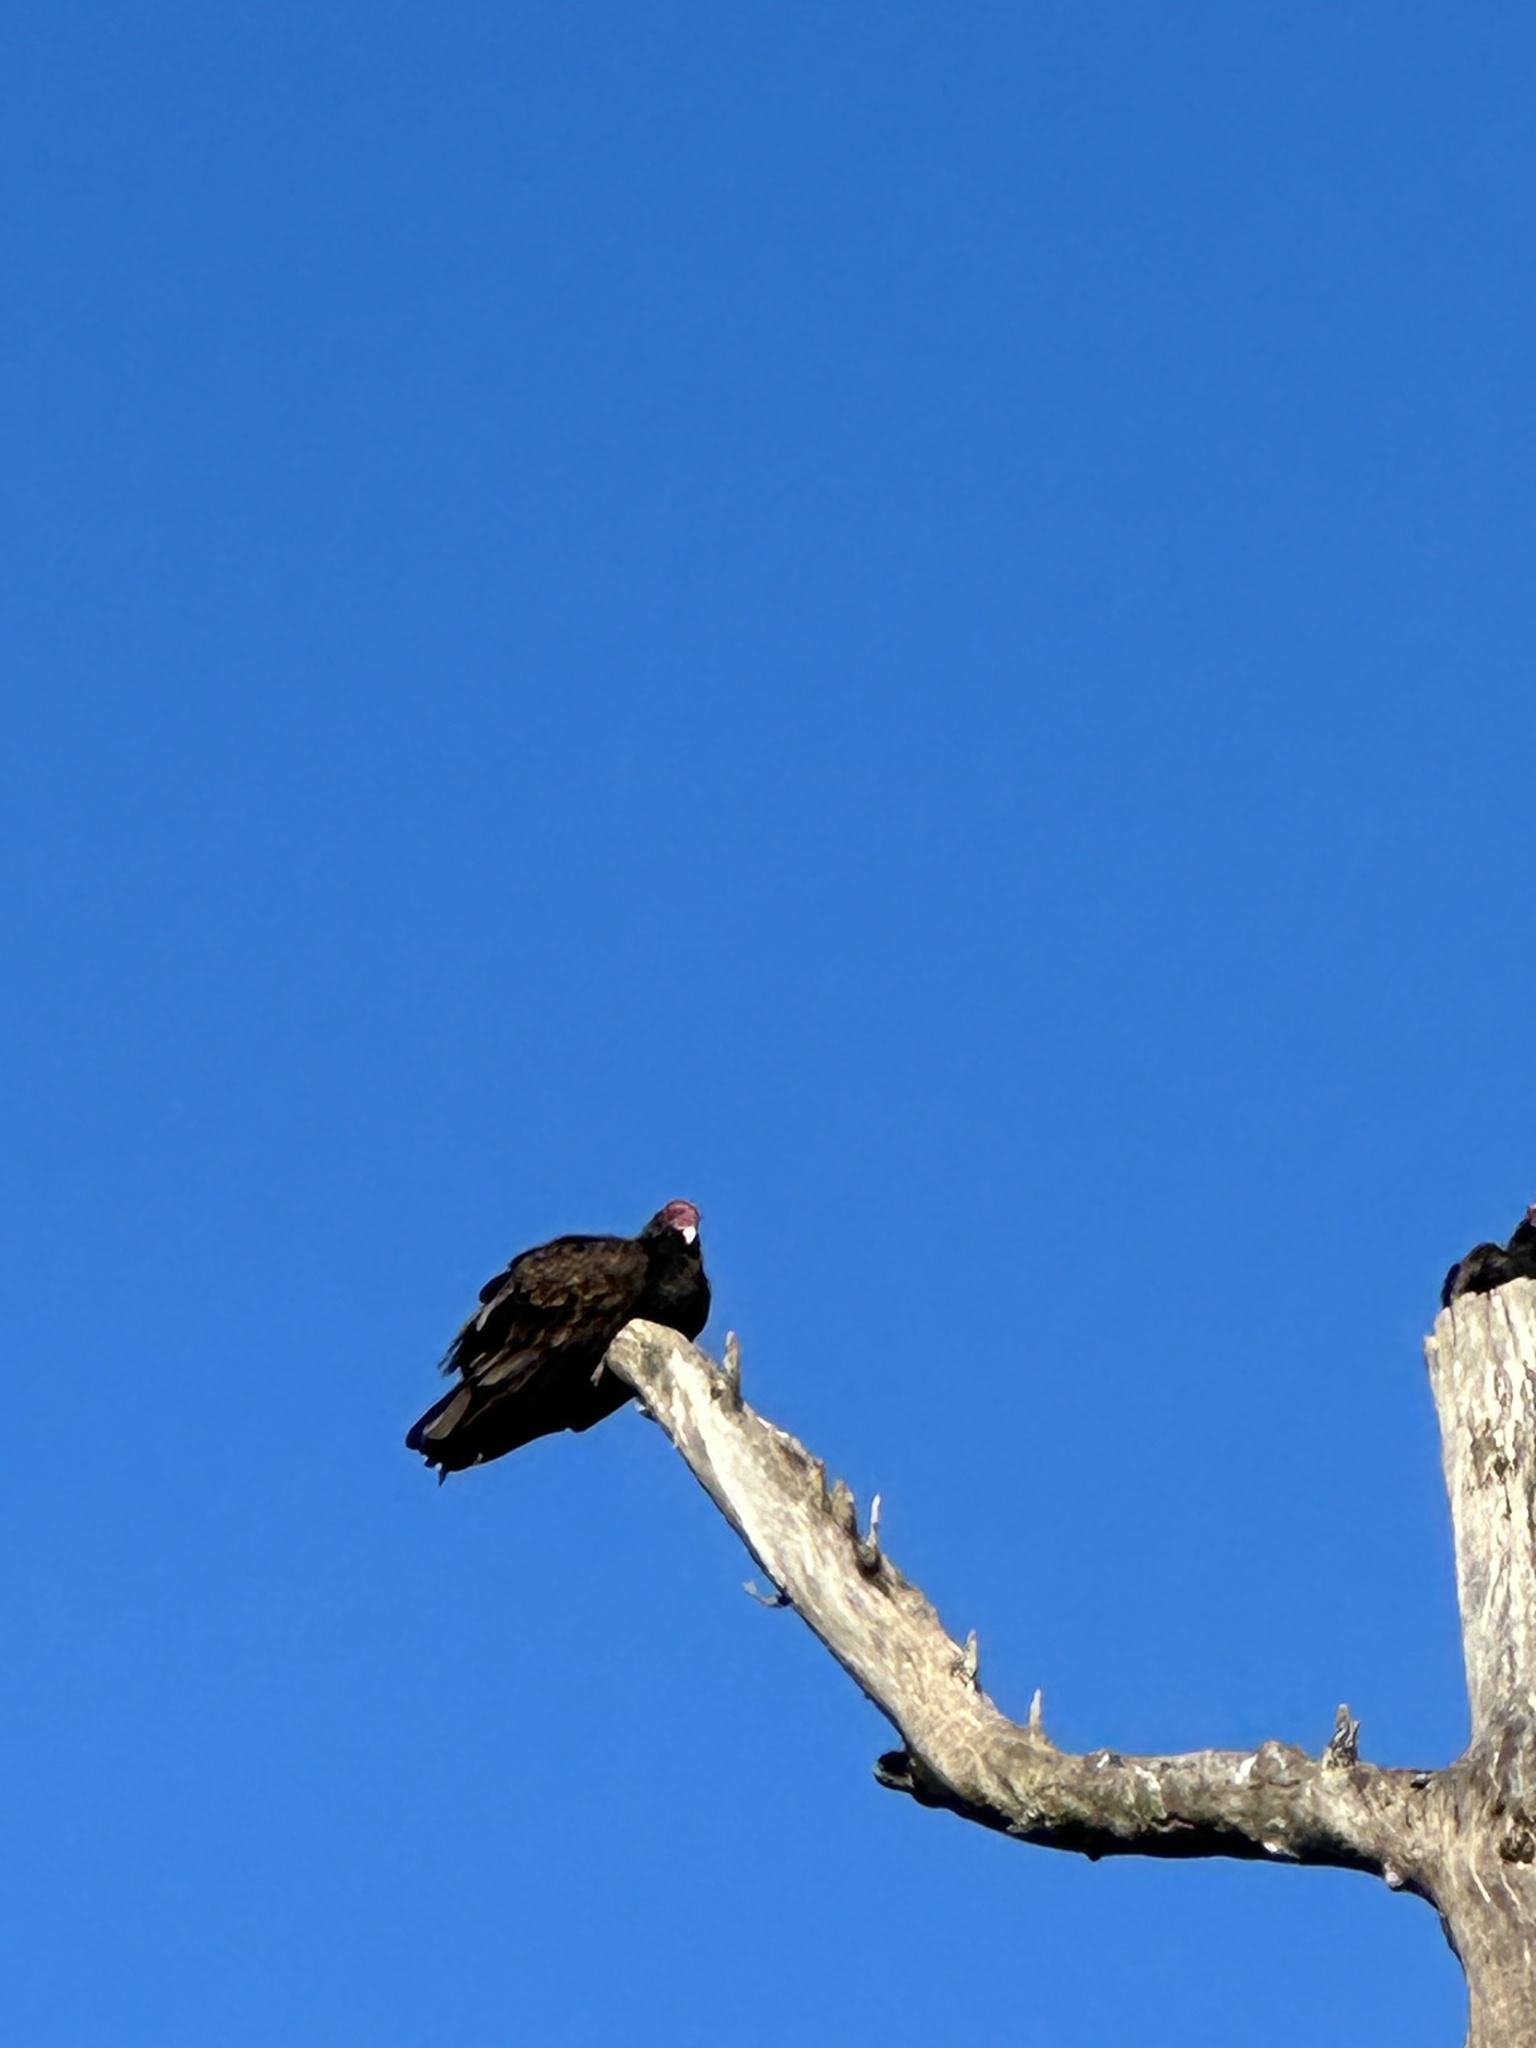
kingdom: Animalia
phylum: Chordata
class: Aves
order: Accipitriformes
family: Cathartidae
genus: Cathartes
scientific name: Cathartes aura
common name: Turkey vulture
